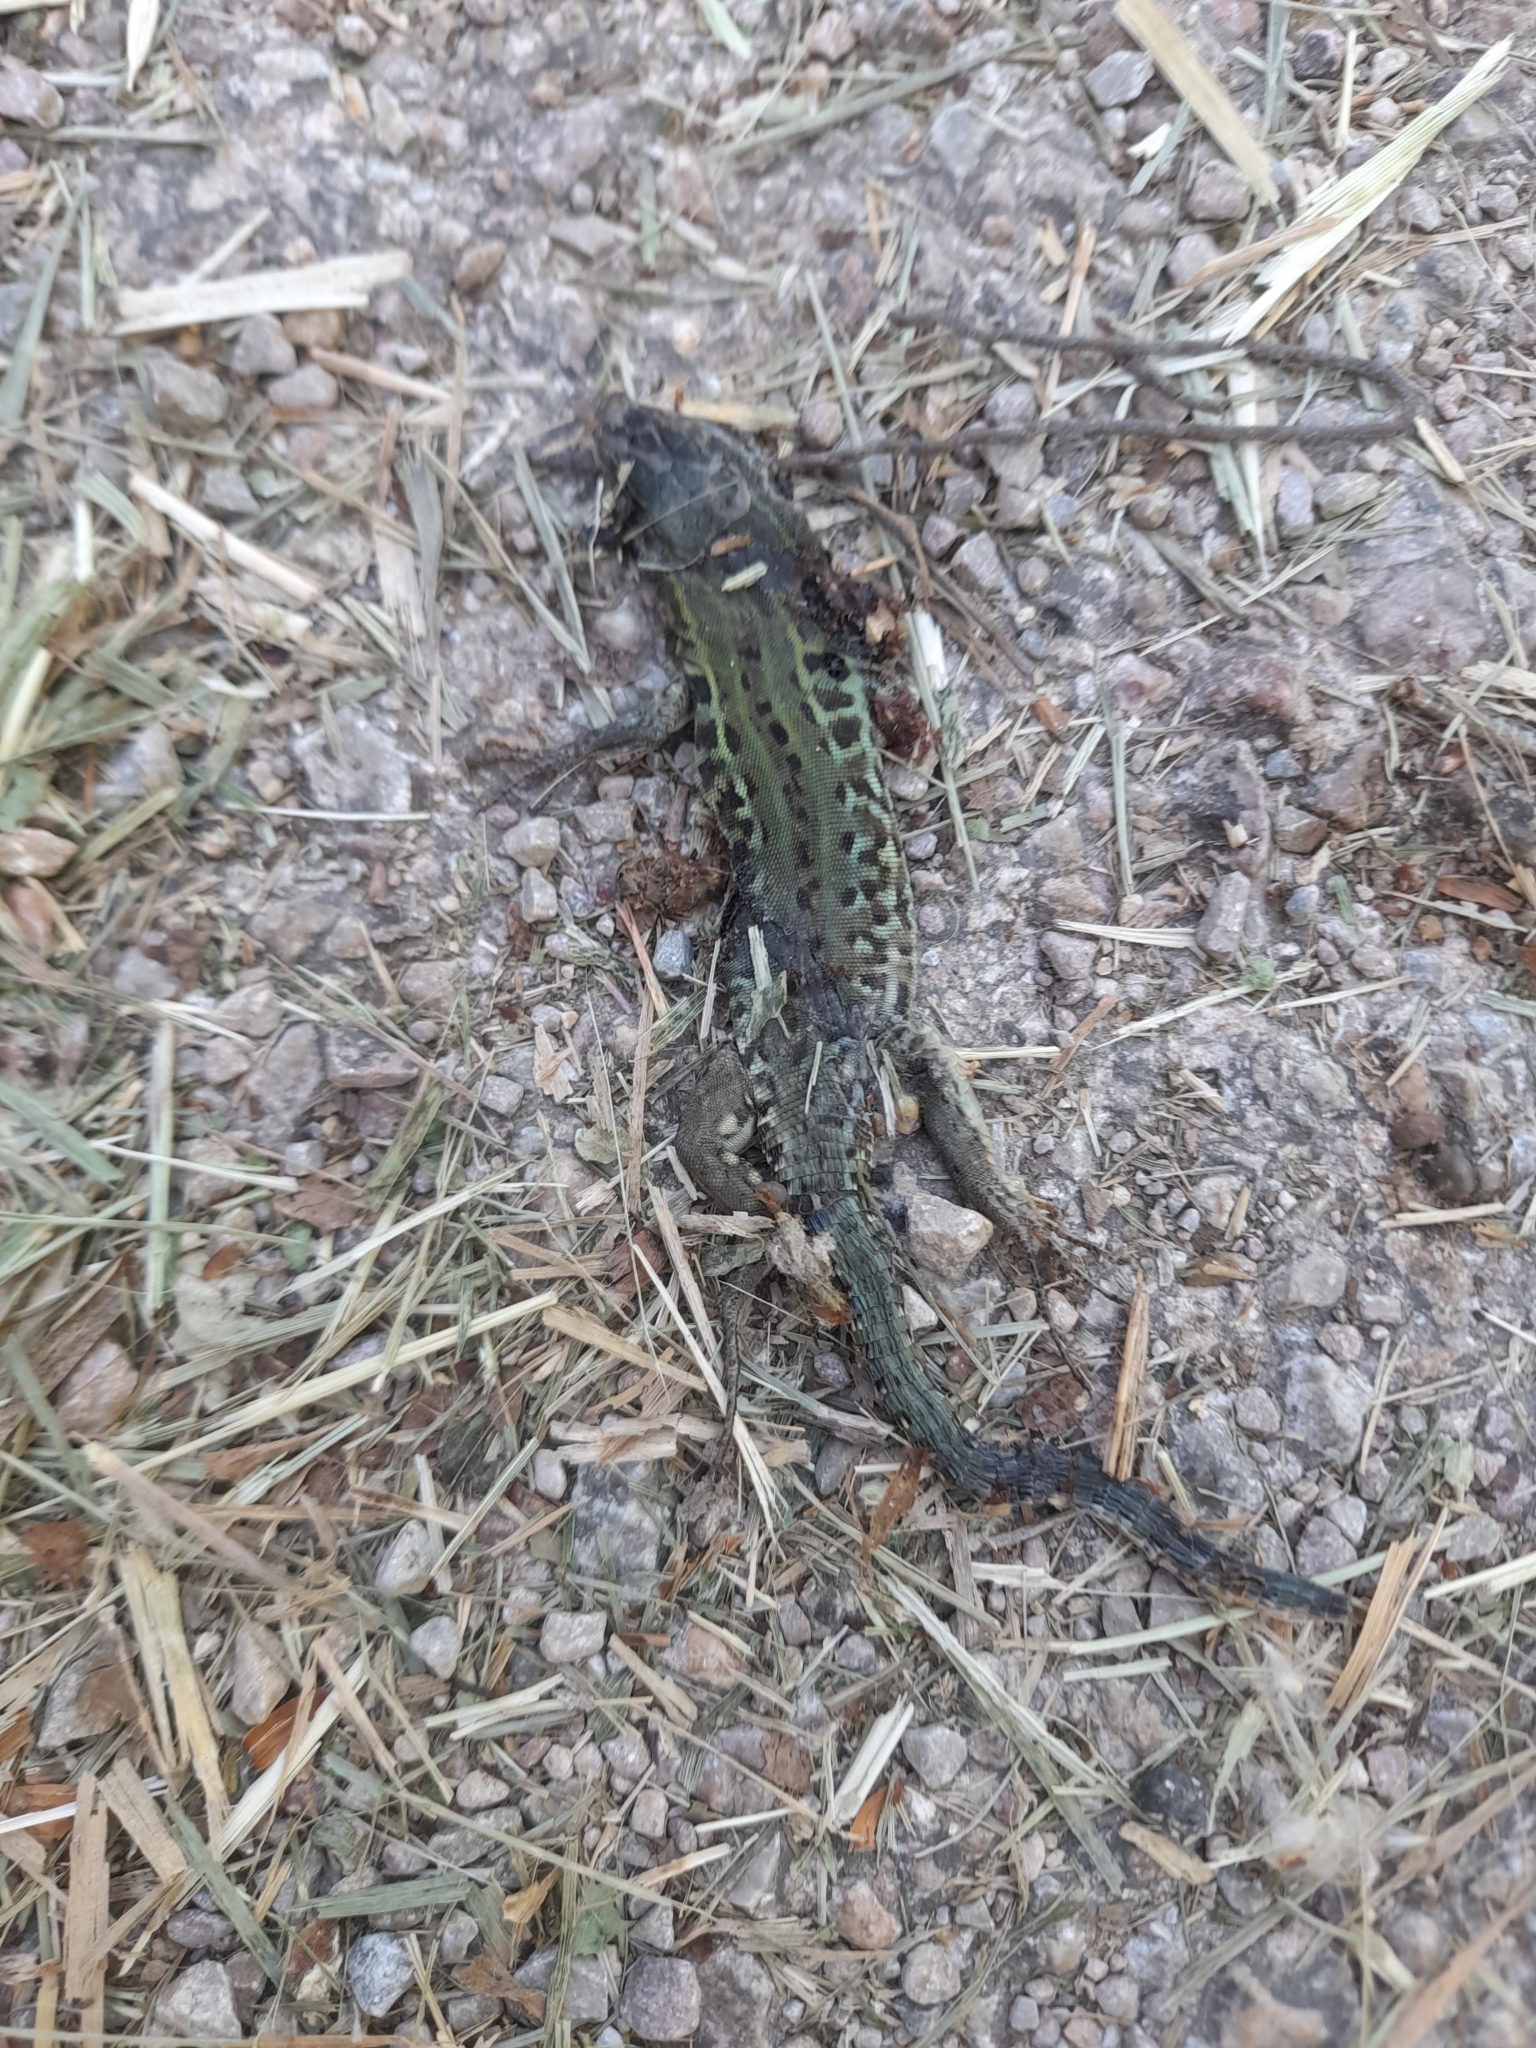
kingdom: Animalia
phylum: Chordata
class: Squamata
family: Lacertidae
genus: Podarcis
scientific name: Podarcis siculus
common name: Italian wall lizard
